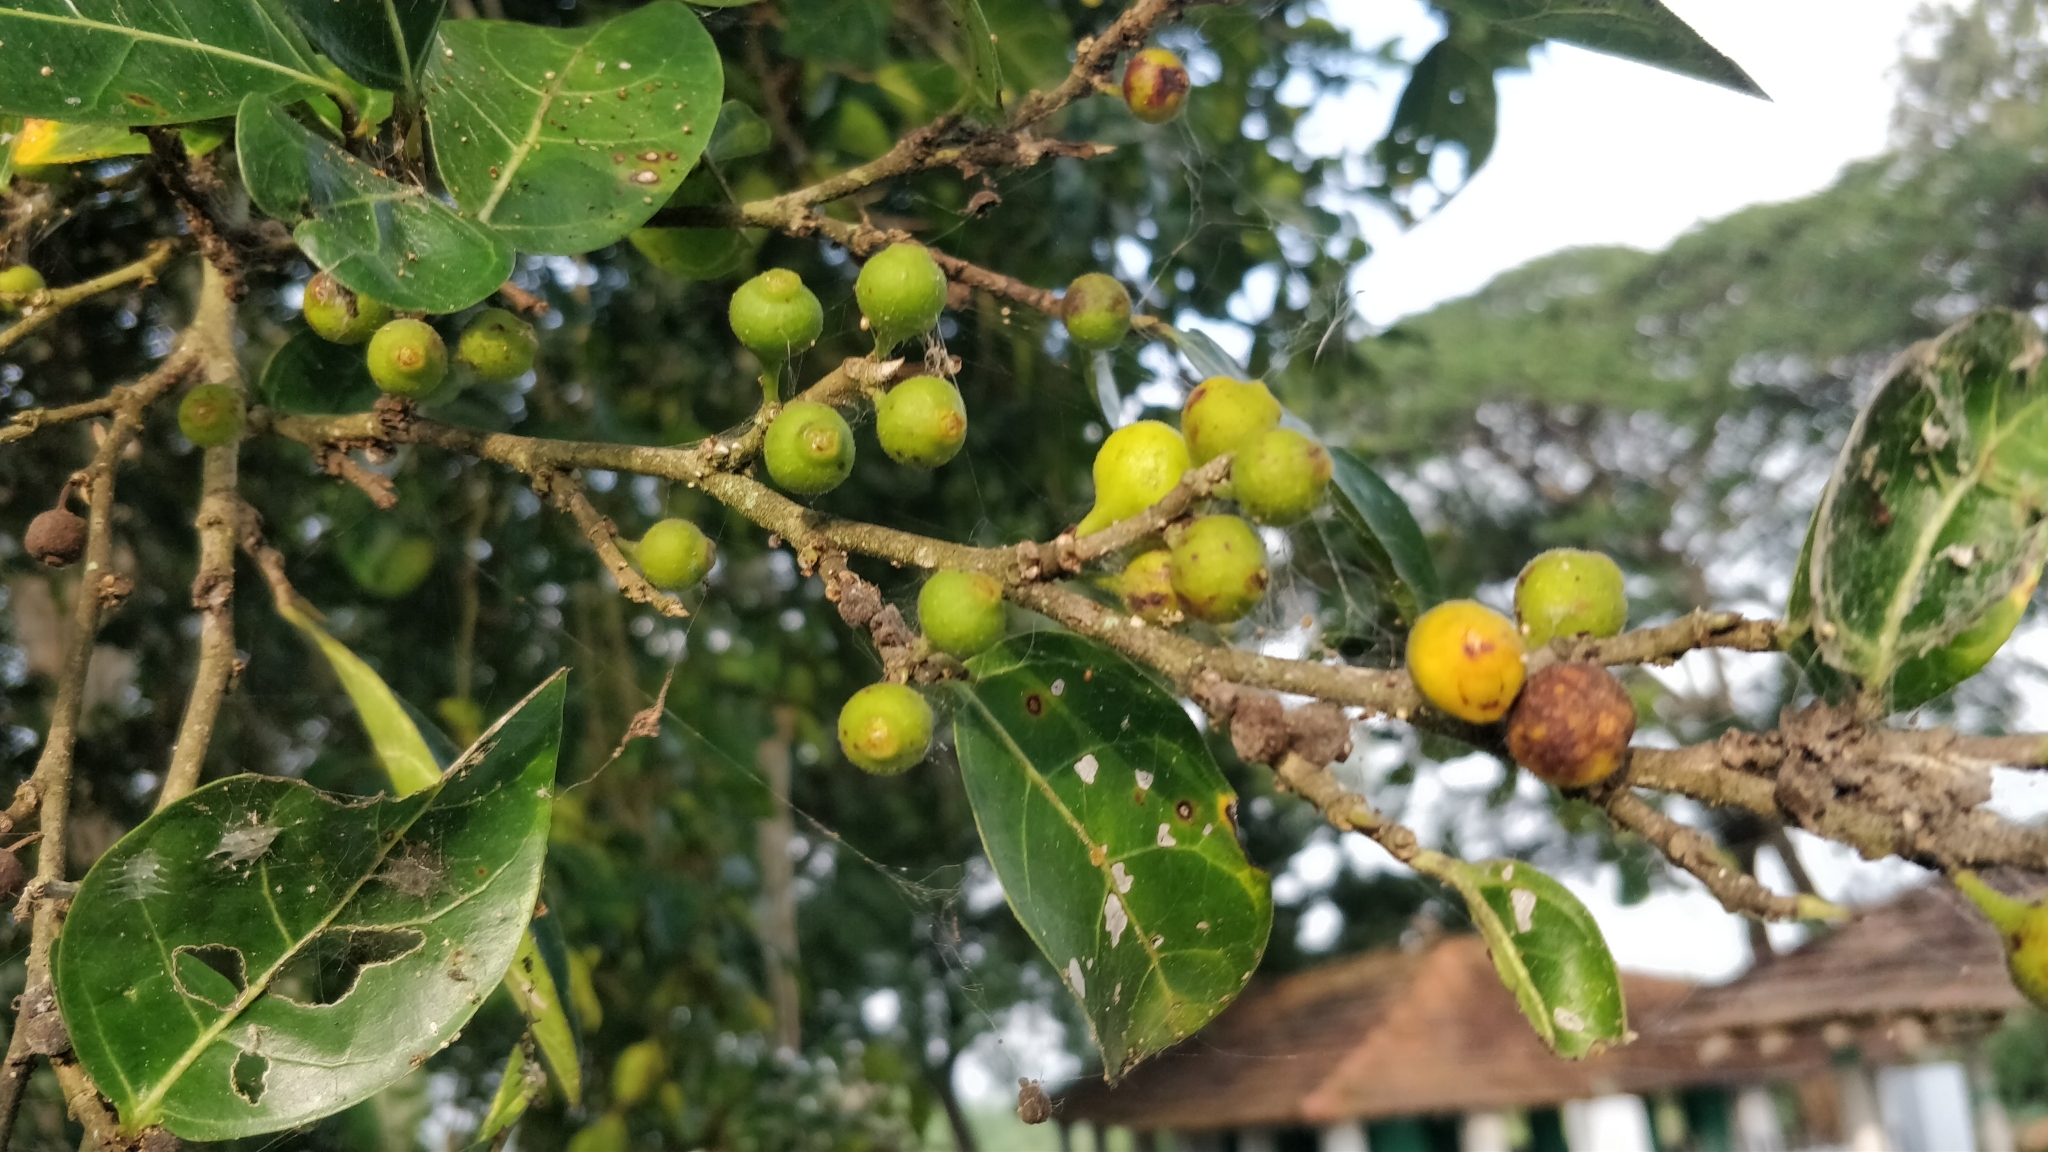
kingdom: Plantae
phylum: Tracheophyta
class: Magnoliopsida
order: Rosales
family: Moraceae
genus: Ficus
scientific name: Ficus tinctoria
